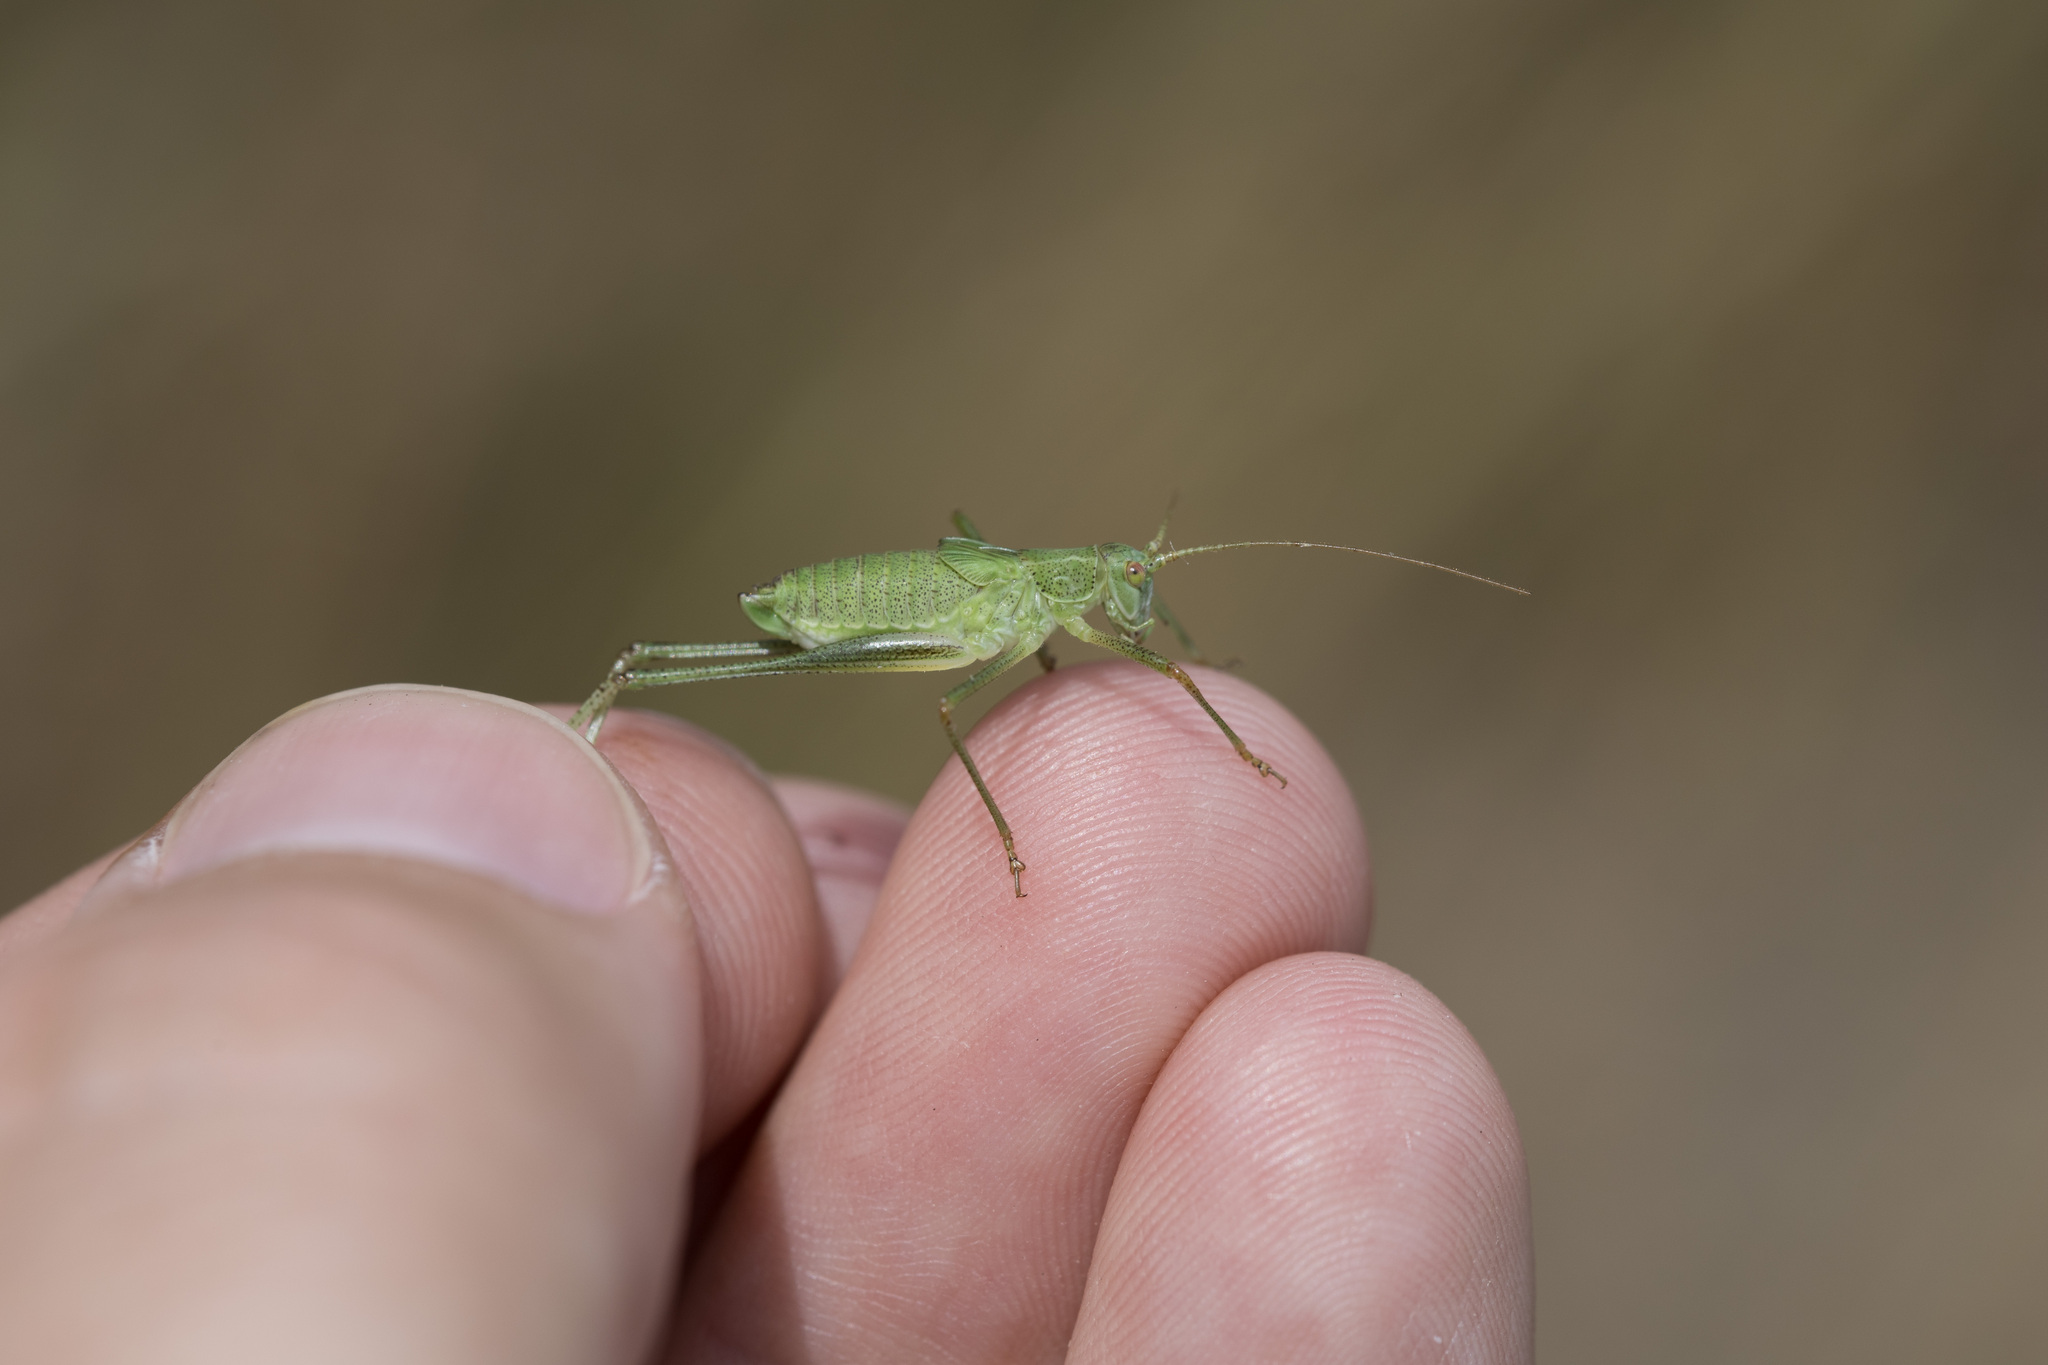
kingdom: Animalia
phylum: Arthropoda
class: Insecta
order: Orthoptera
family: Tettigoniidae
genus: Phaneroptera
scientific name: Phaneroptera falcata
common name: Sickle-bearing bush-cricket
